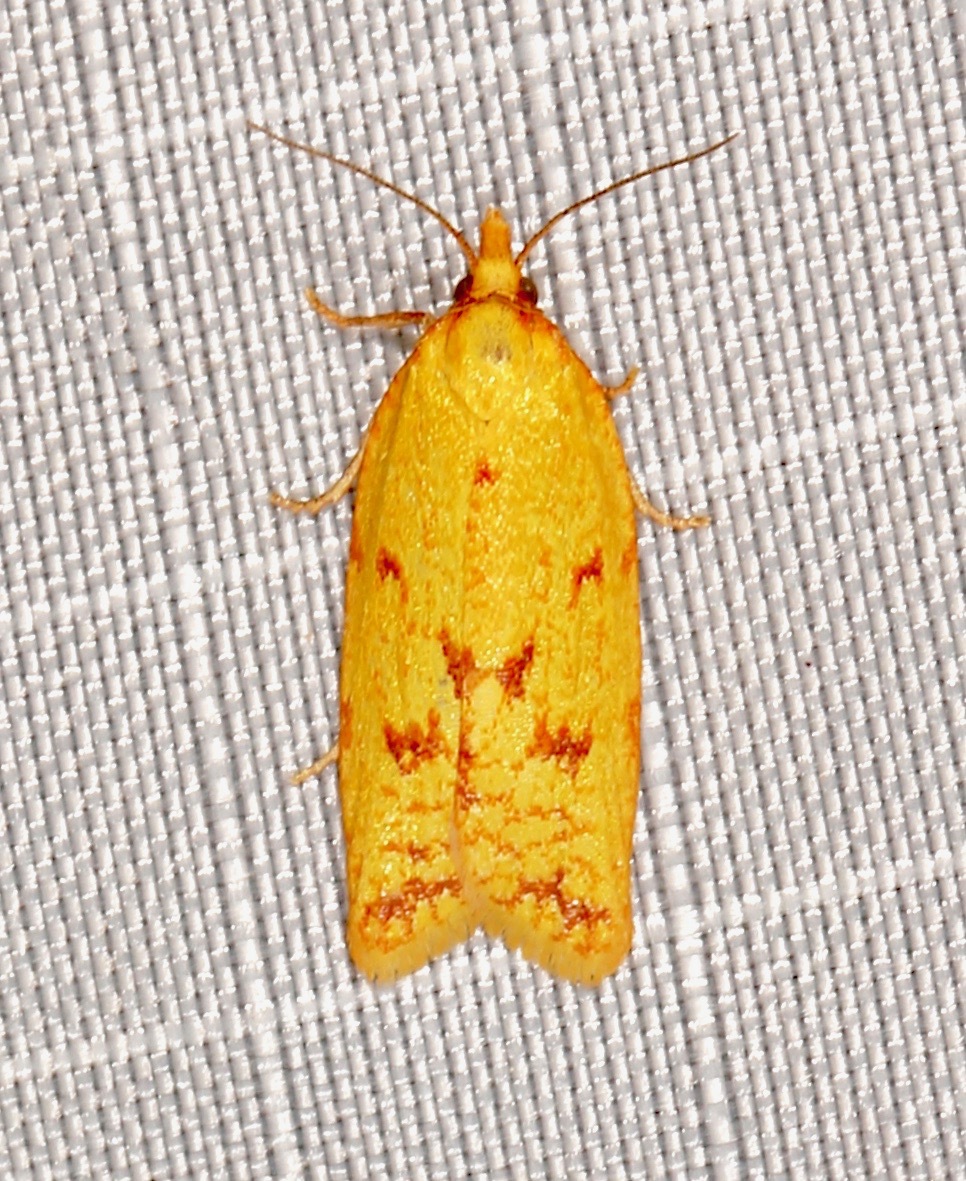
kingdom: Animalia
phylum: Arthropoda
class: Insecta
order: Lepidoptera
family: Tortricidae
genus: Sparganothis
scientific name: Sparganothis sulfureana
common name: Sparganothis fruitworm moth
